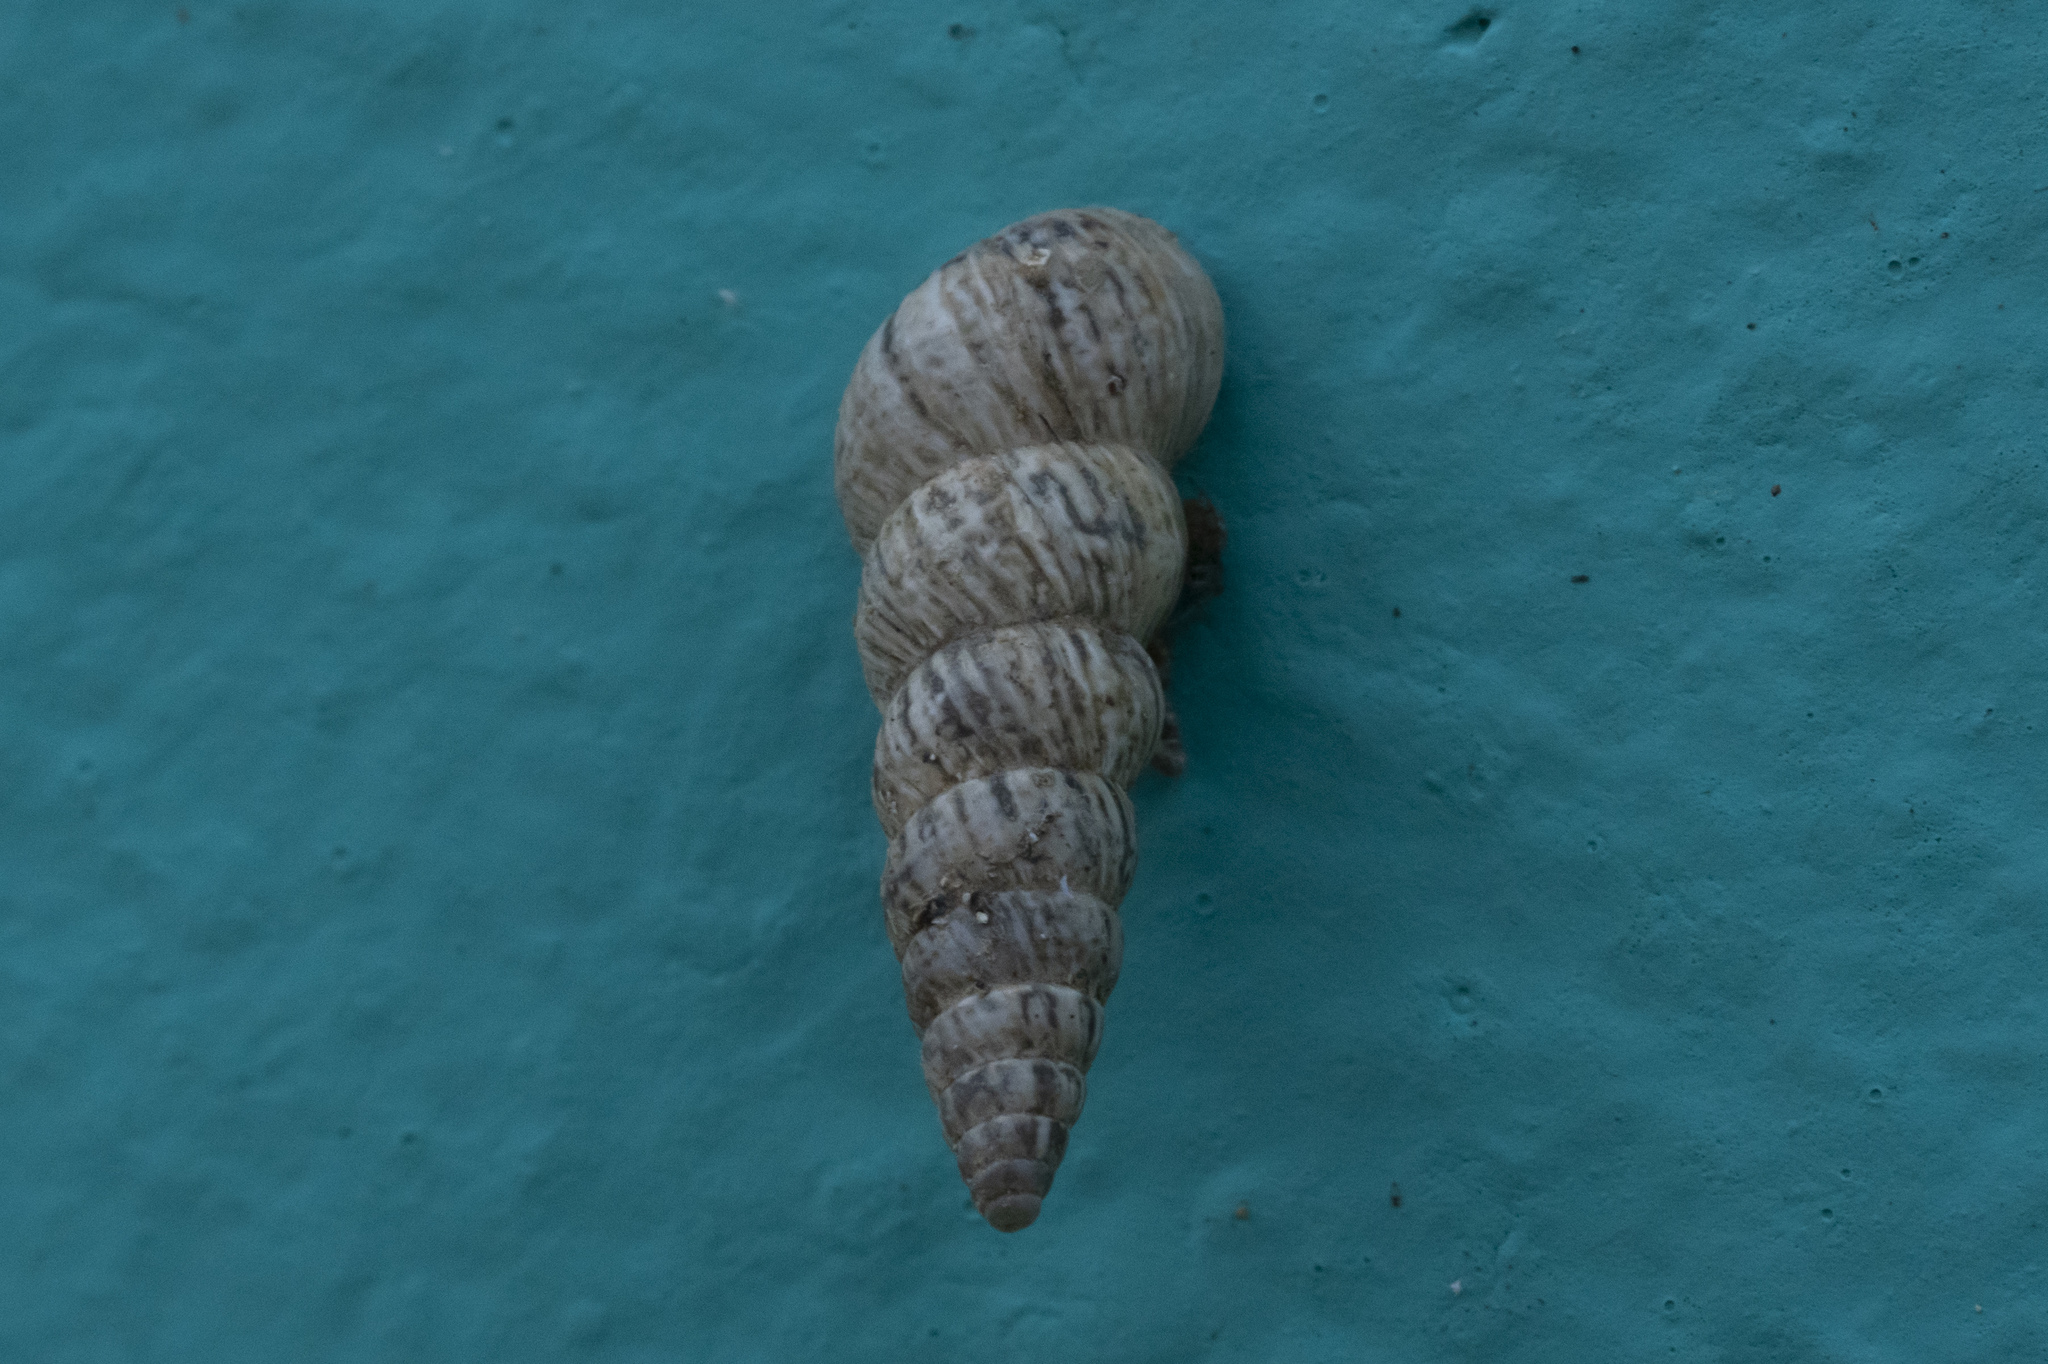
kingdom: Animalia
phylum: Mollusca
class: Gastropoda
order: Stylommatophora
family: Geomitridae
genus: Cochlicella
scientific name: Cochlicella acuta
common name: Pointed snail
